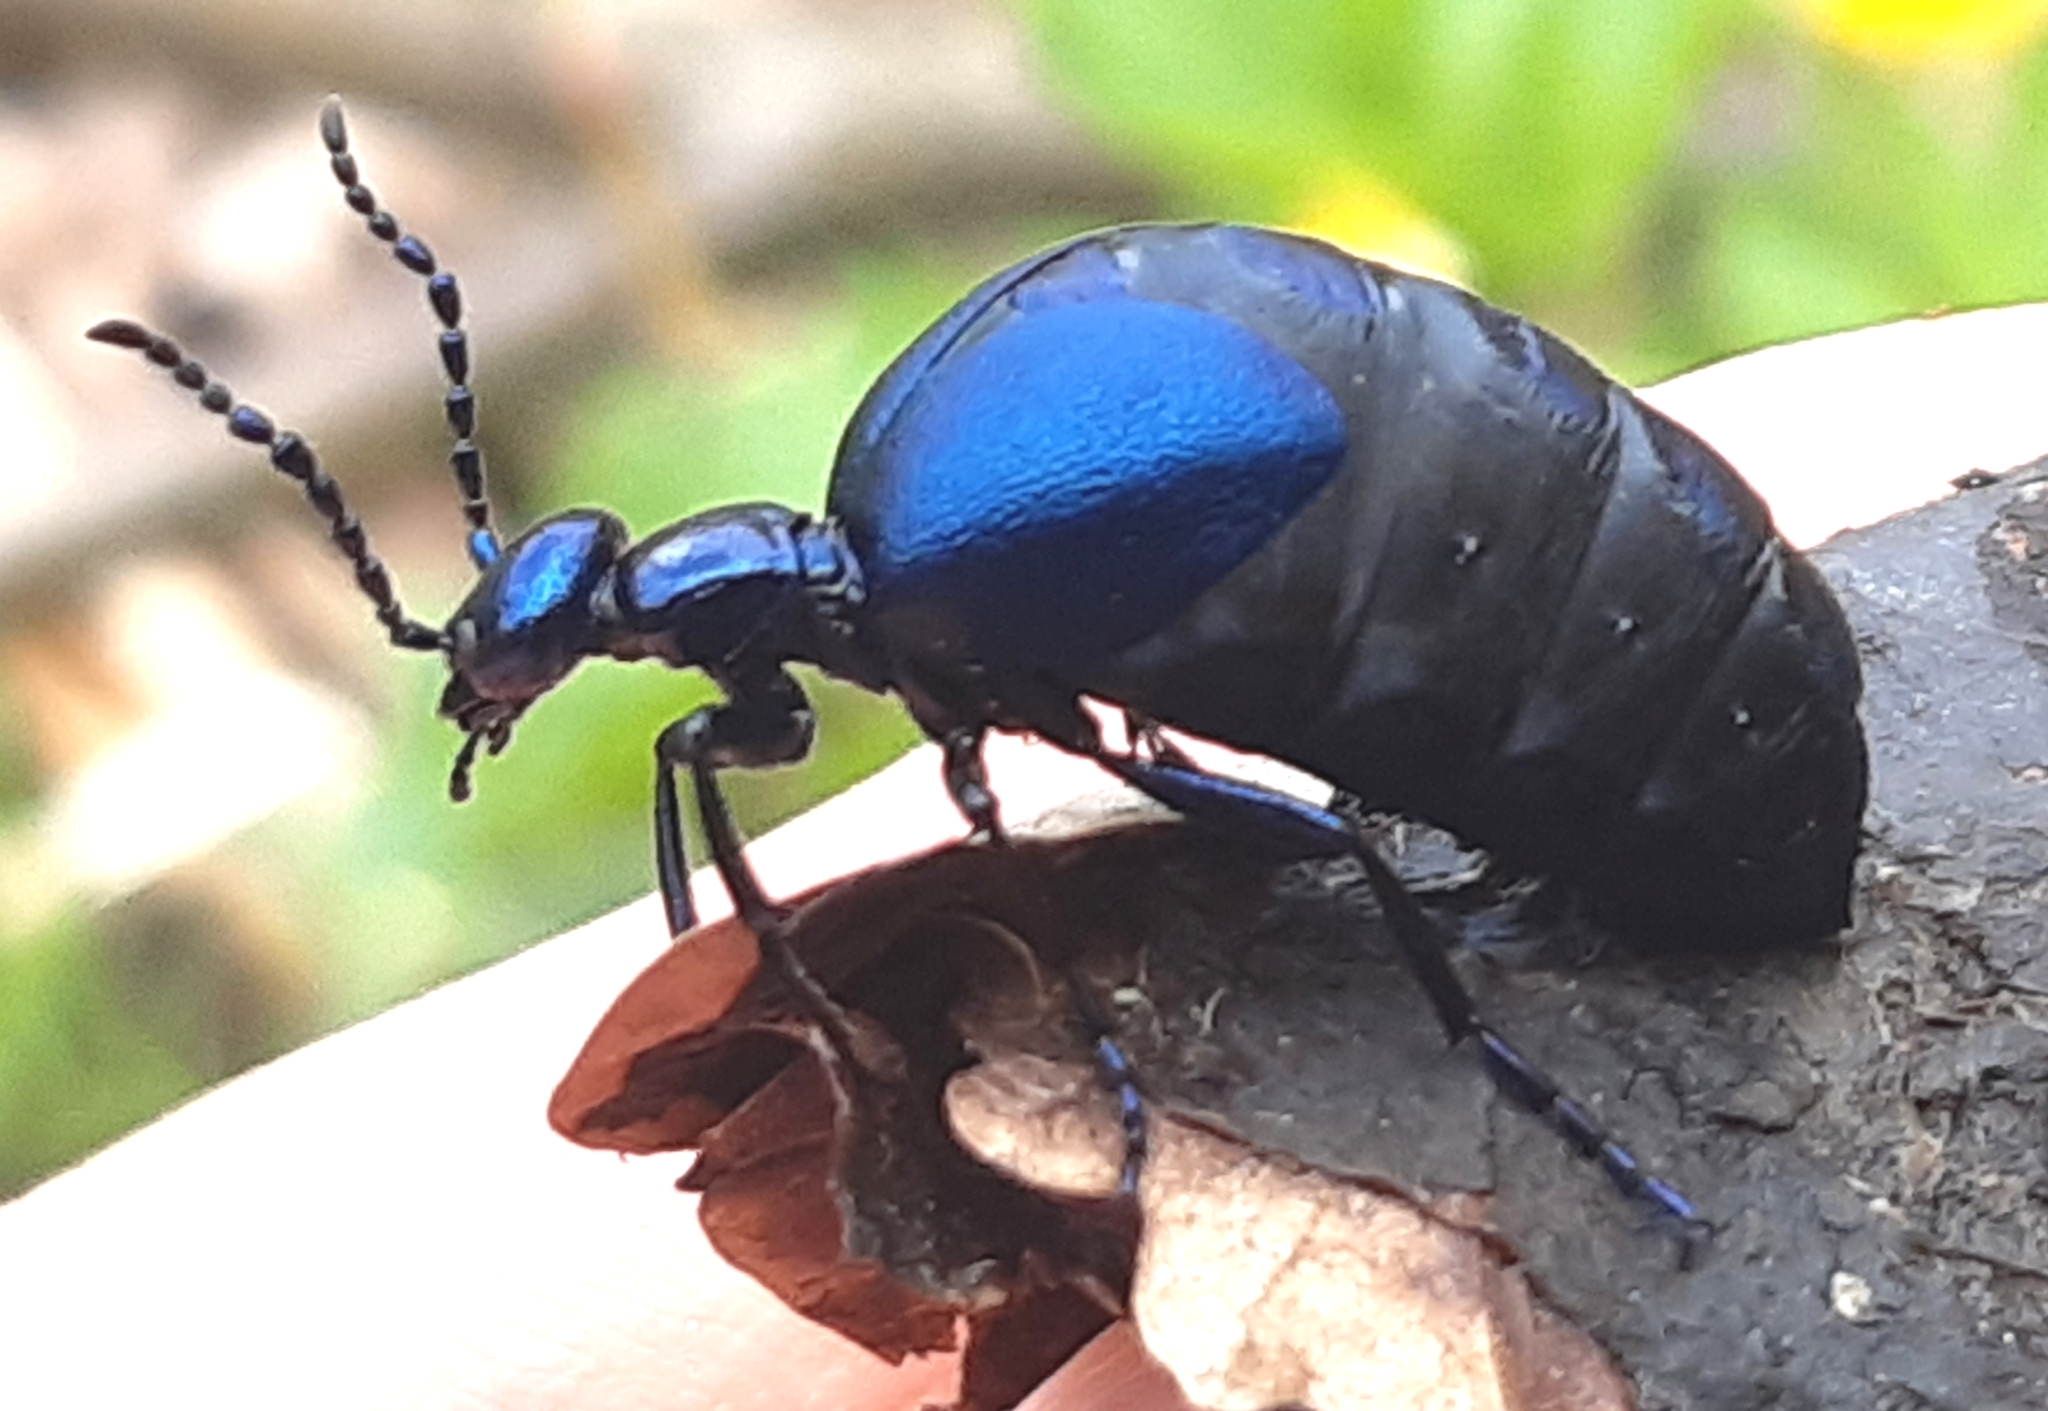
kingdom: Animalia
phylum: Arthropoda
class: Insecta
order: Coleoptera
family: Meloidae
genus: Meloe
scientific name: Meloe violaceus
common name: Violet oil-beetle
